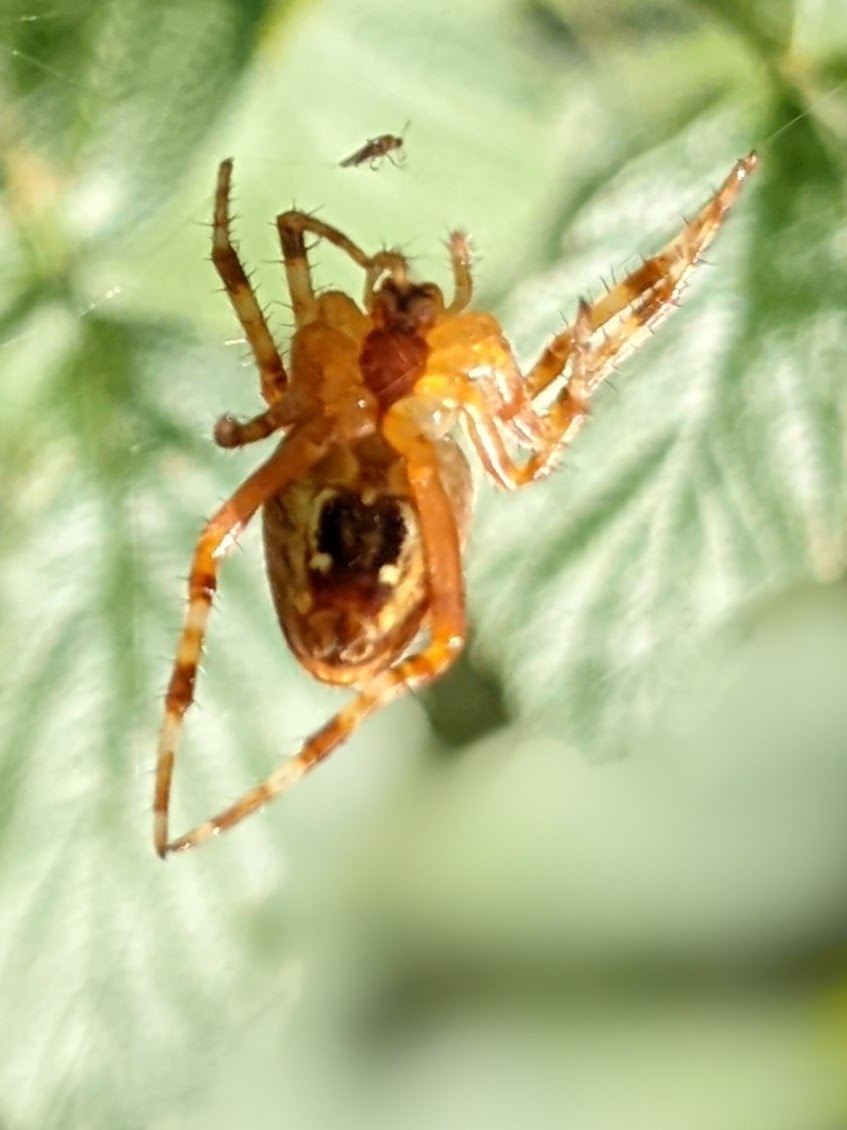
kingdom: Animalia
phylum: Arthropoda
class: Arachnida
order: Araneae
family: Araneidae
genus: Araneus
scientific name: Araneus diadematus
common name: Cross orbweaver
